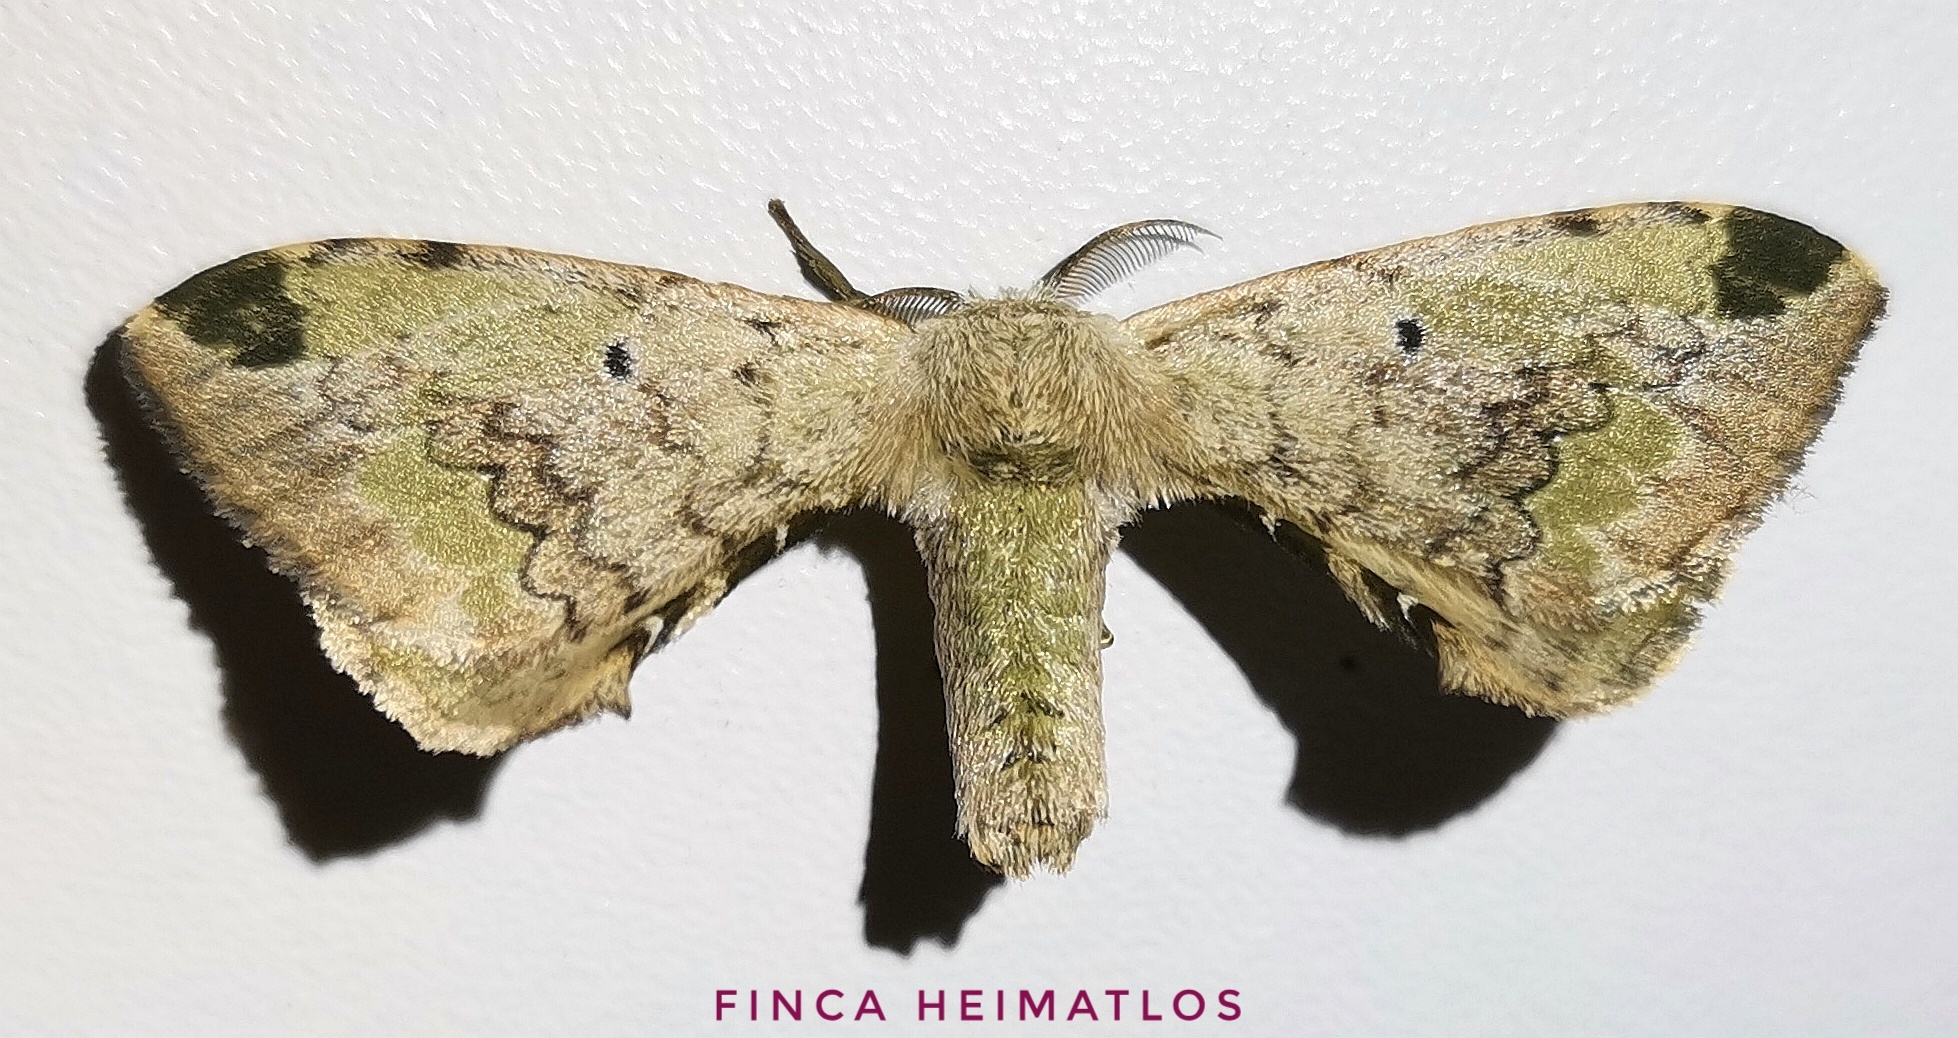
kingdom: Animalia
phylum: Arthropoda
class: Insecta
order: Lepidoptera
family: Bombycidae
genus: Anticla
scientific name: Anticla antica
